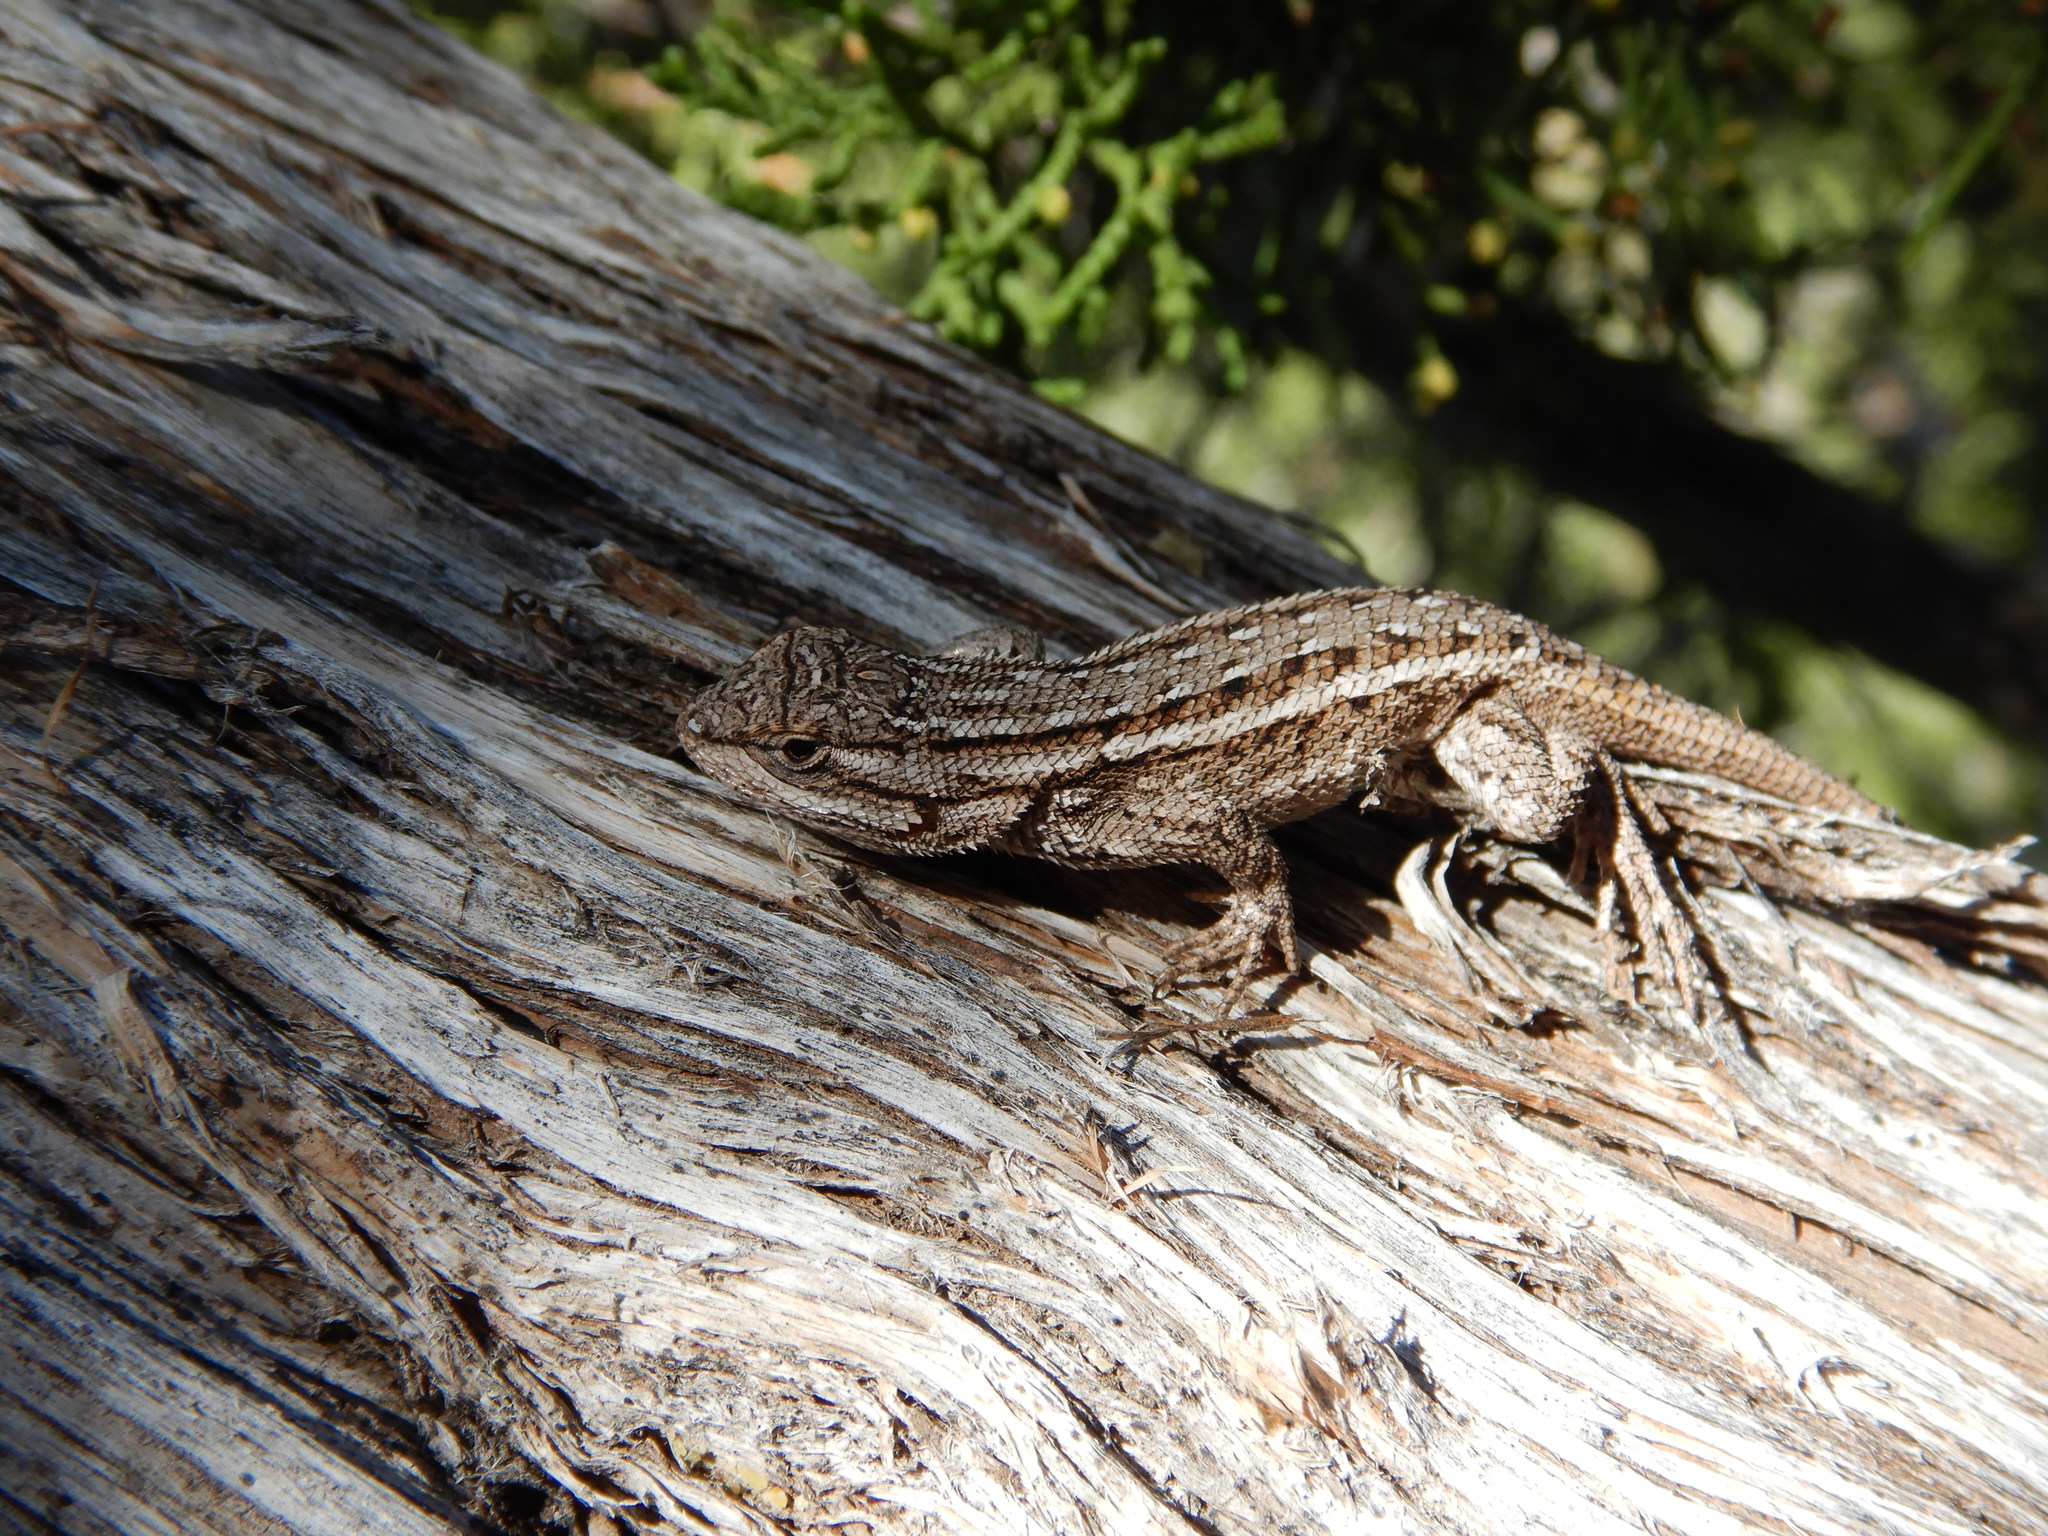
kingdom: Animalia
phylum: Chordata
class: Squamata
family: Phrynosomatidae
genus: Sceloporus
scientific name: Sceloporus cowlesi
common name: White sands prairie lizard
